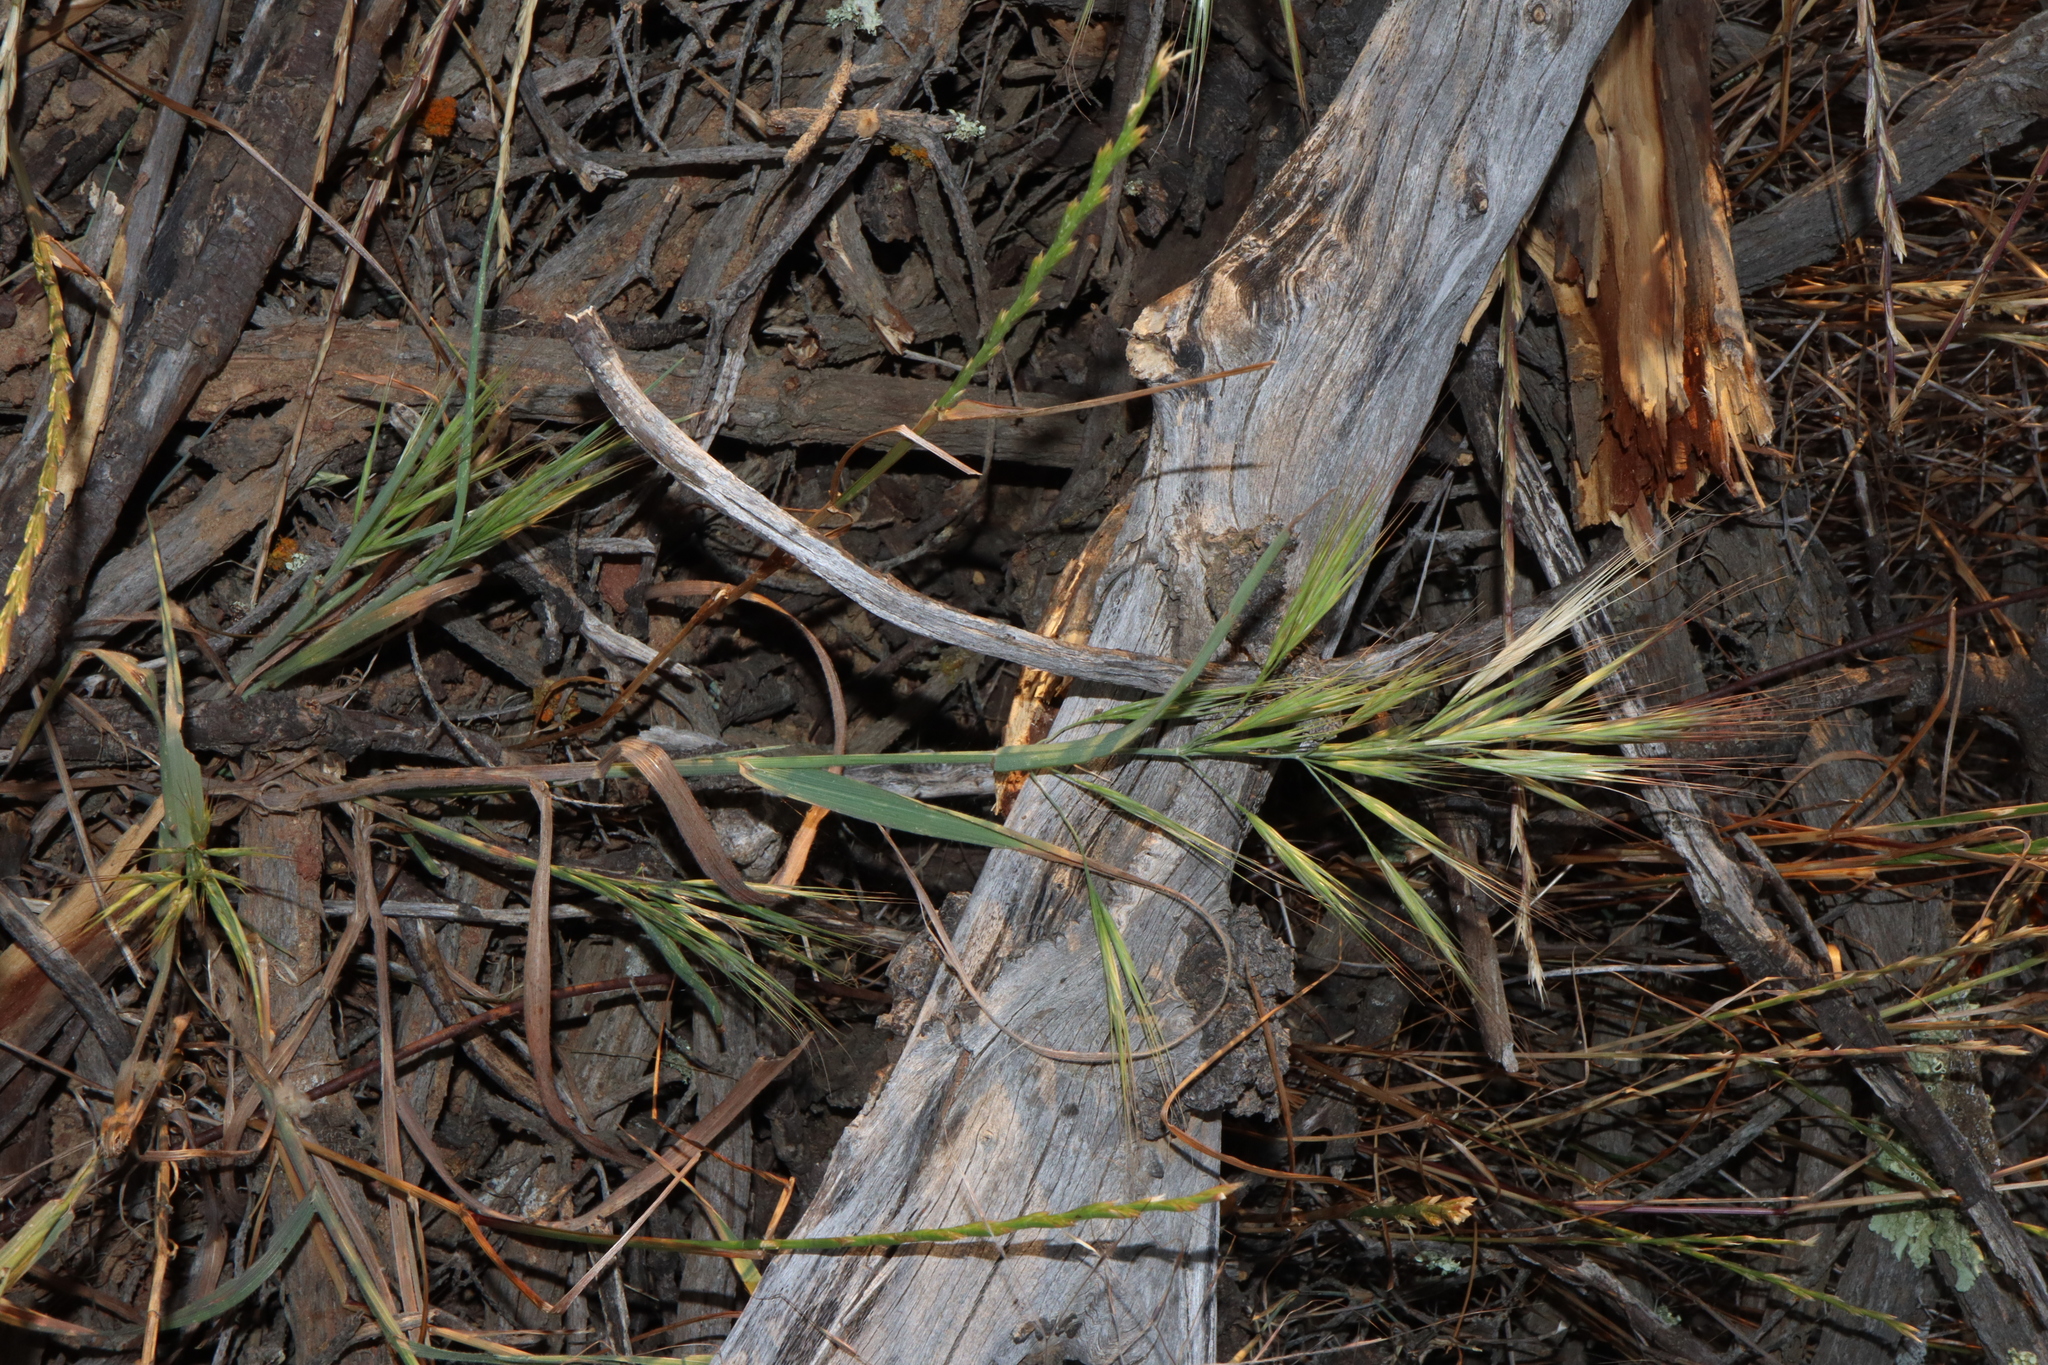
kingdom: Plantae
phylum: Tracheophyta
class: Liliopsida
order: Poales
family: Poaceae
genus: Bromus
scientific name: Bromus diandrus
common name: Ripgut brome
